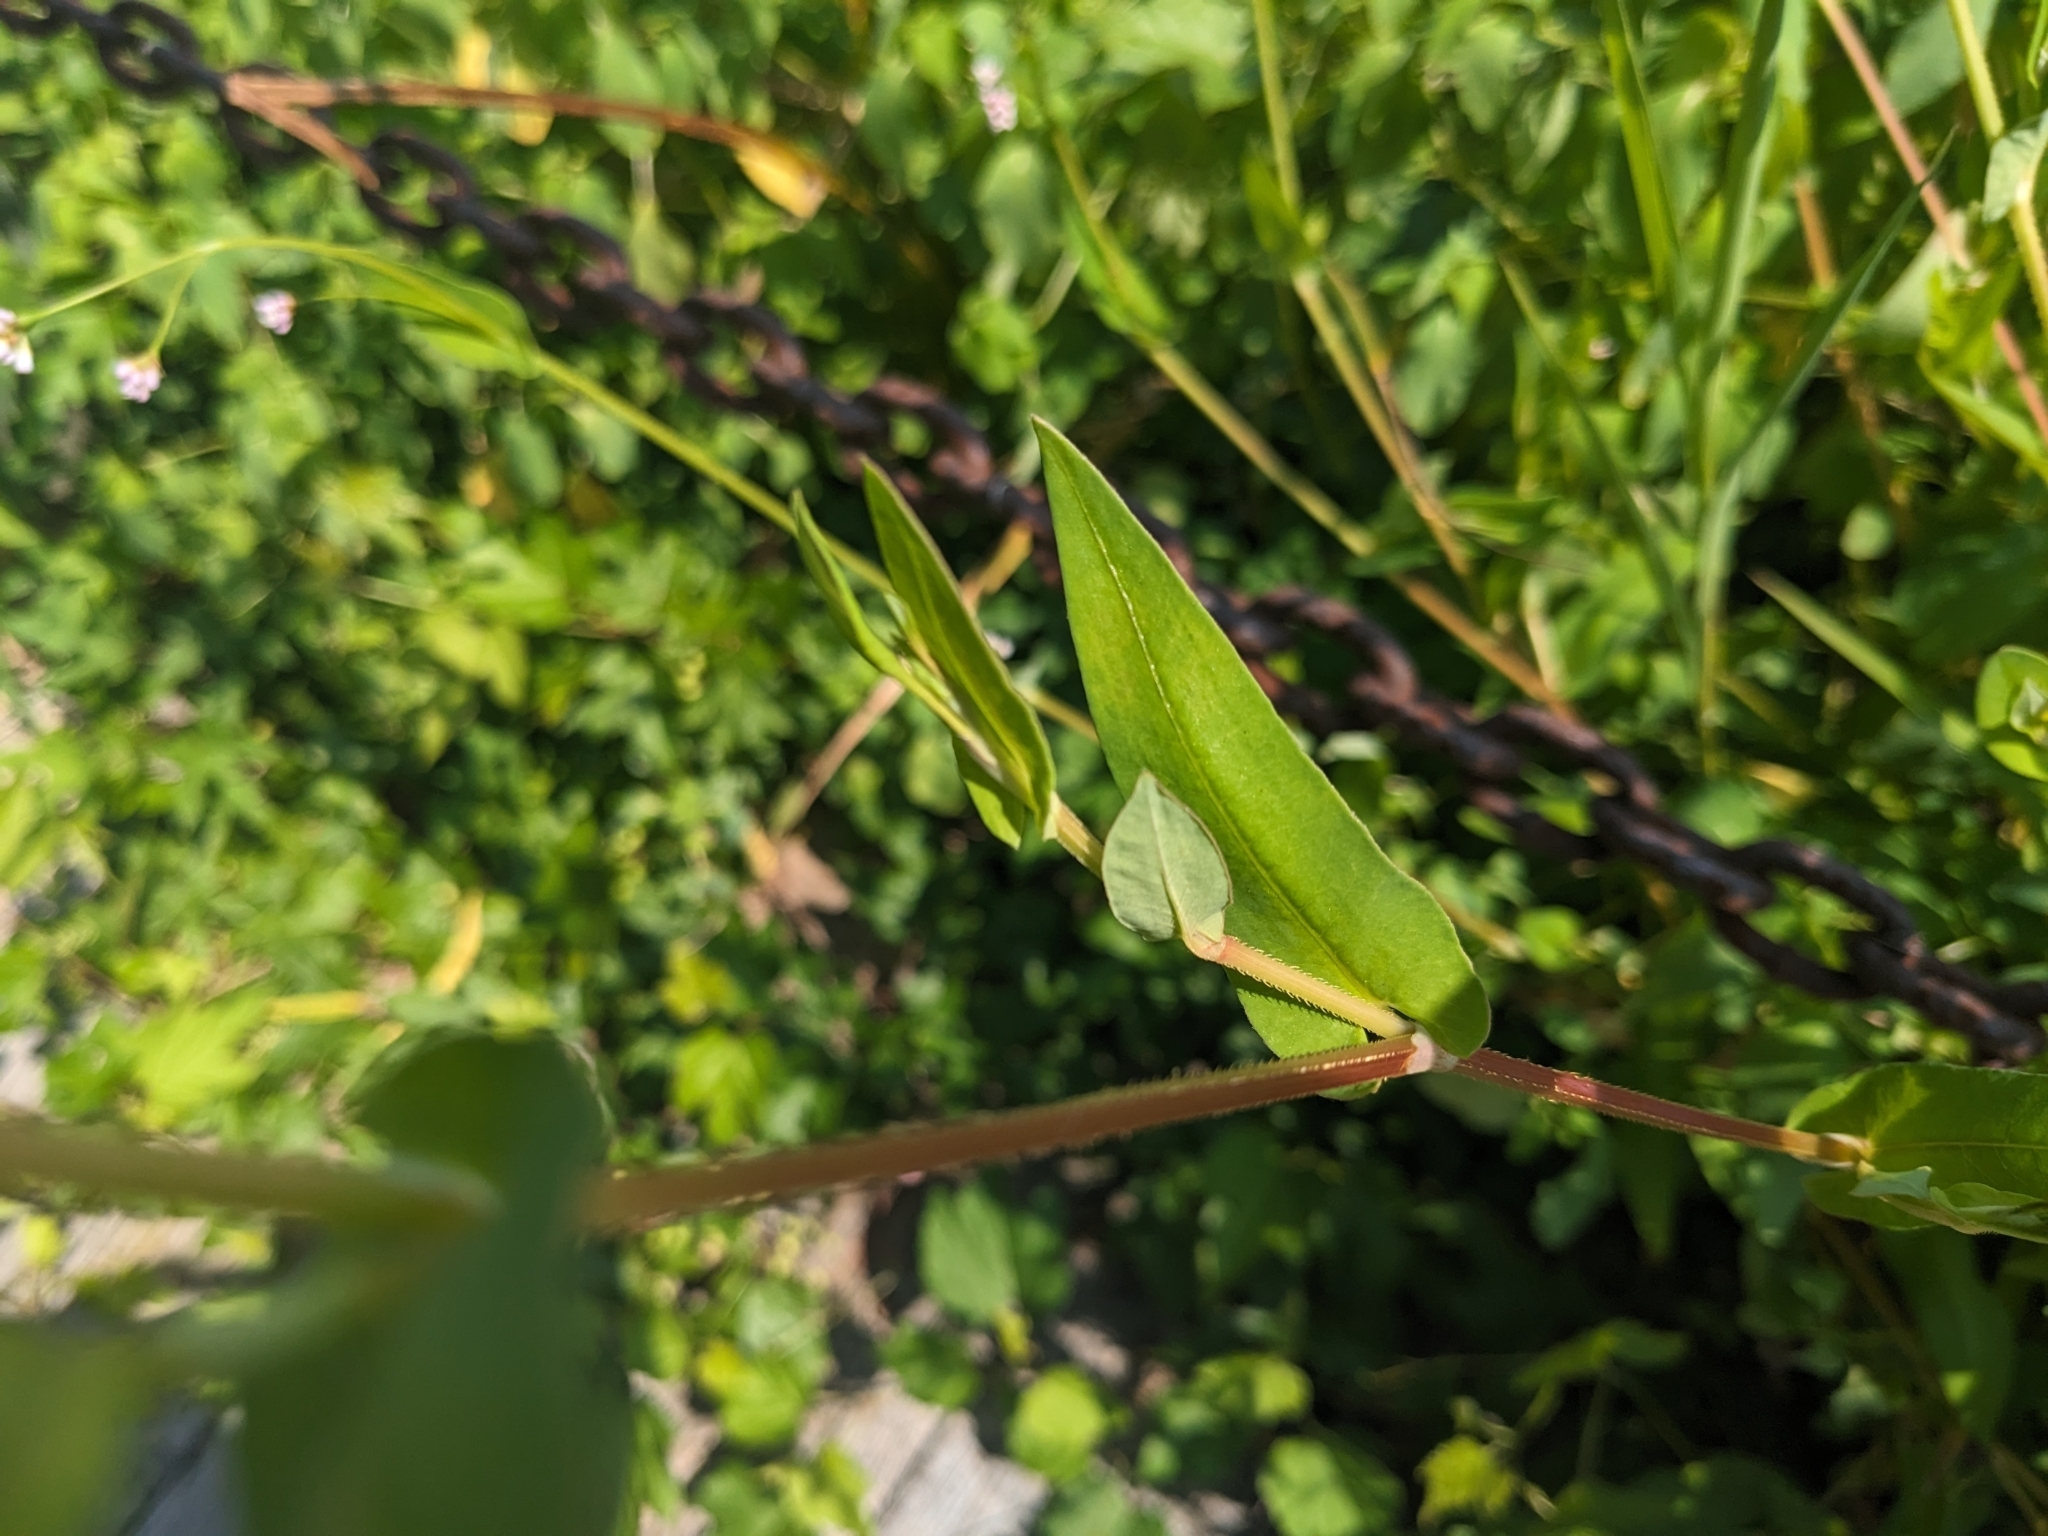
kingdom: Plantae
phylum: Tracheophyta
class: Magnoliopsida
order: Caryophyllales
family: Polygonaceae
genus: Persicaria
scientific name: Persicaria sagittata
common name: American tearthumb
